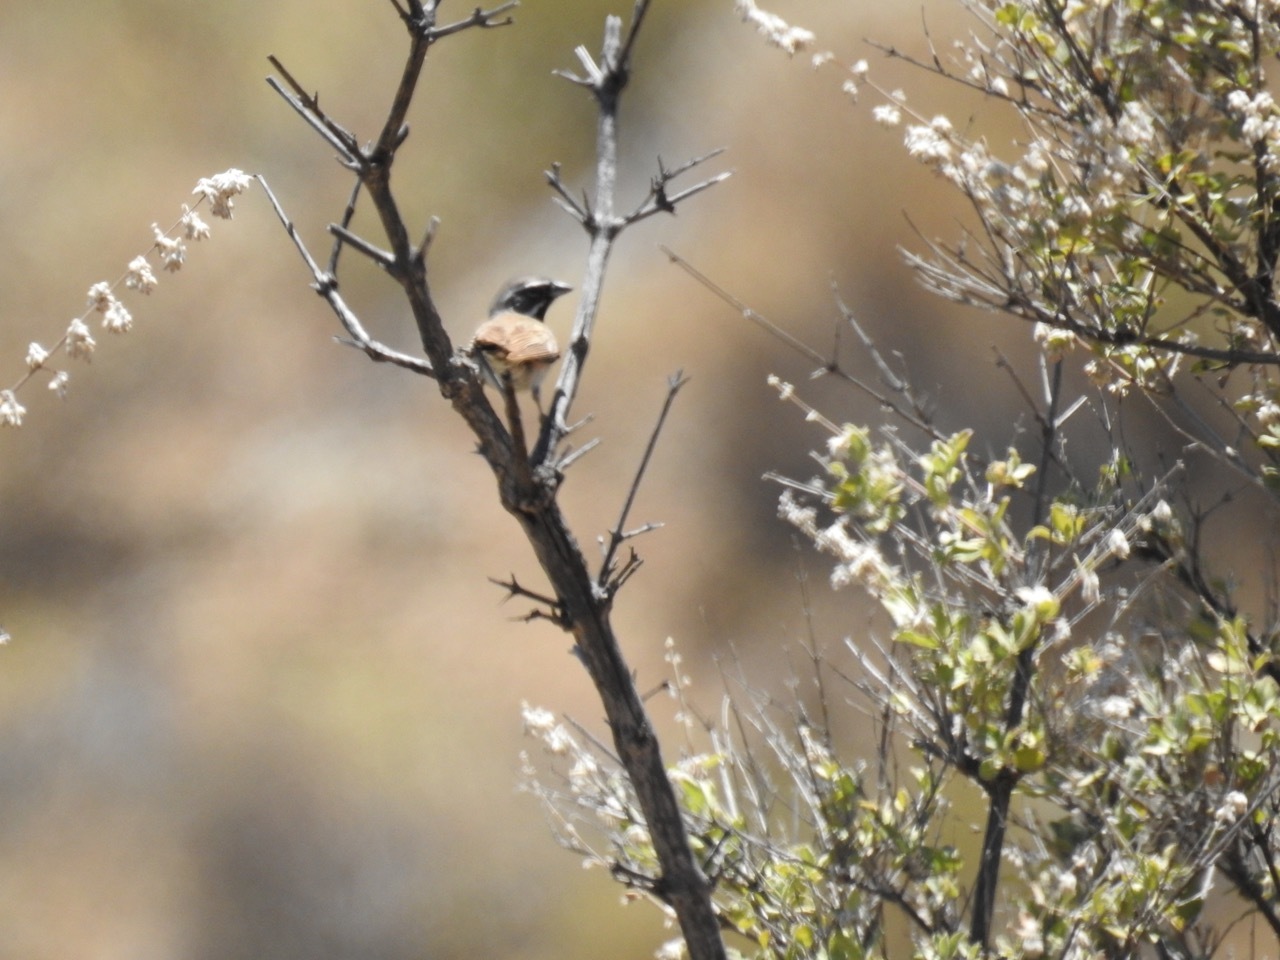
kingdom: Animalia
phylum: Chordata
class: Aves
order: Passeriformes
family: Passerellidae
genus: Amphispiza
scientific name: Amphispiza bilineata
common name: Black-throated sparrow
